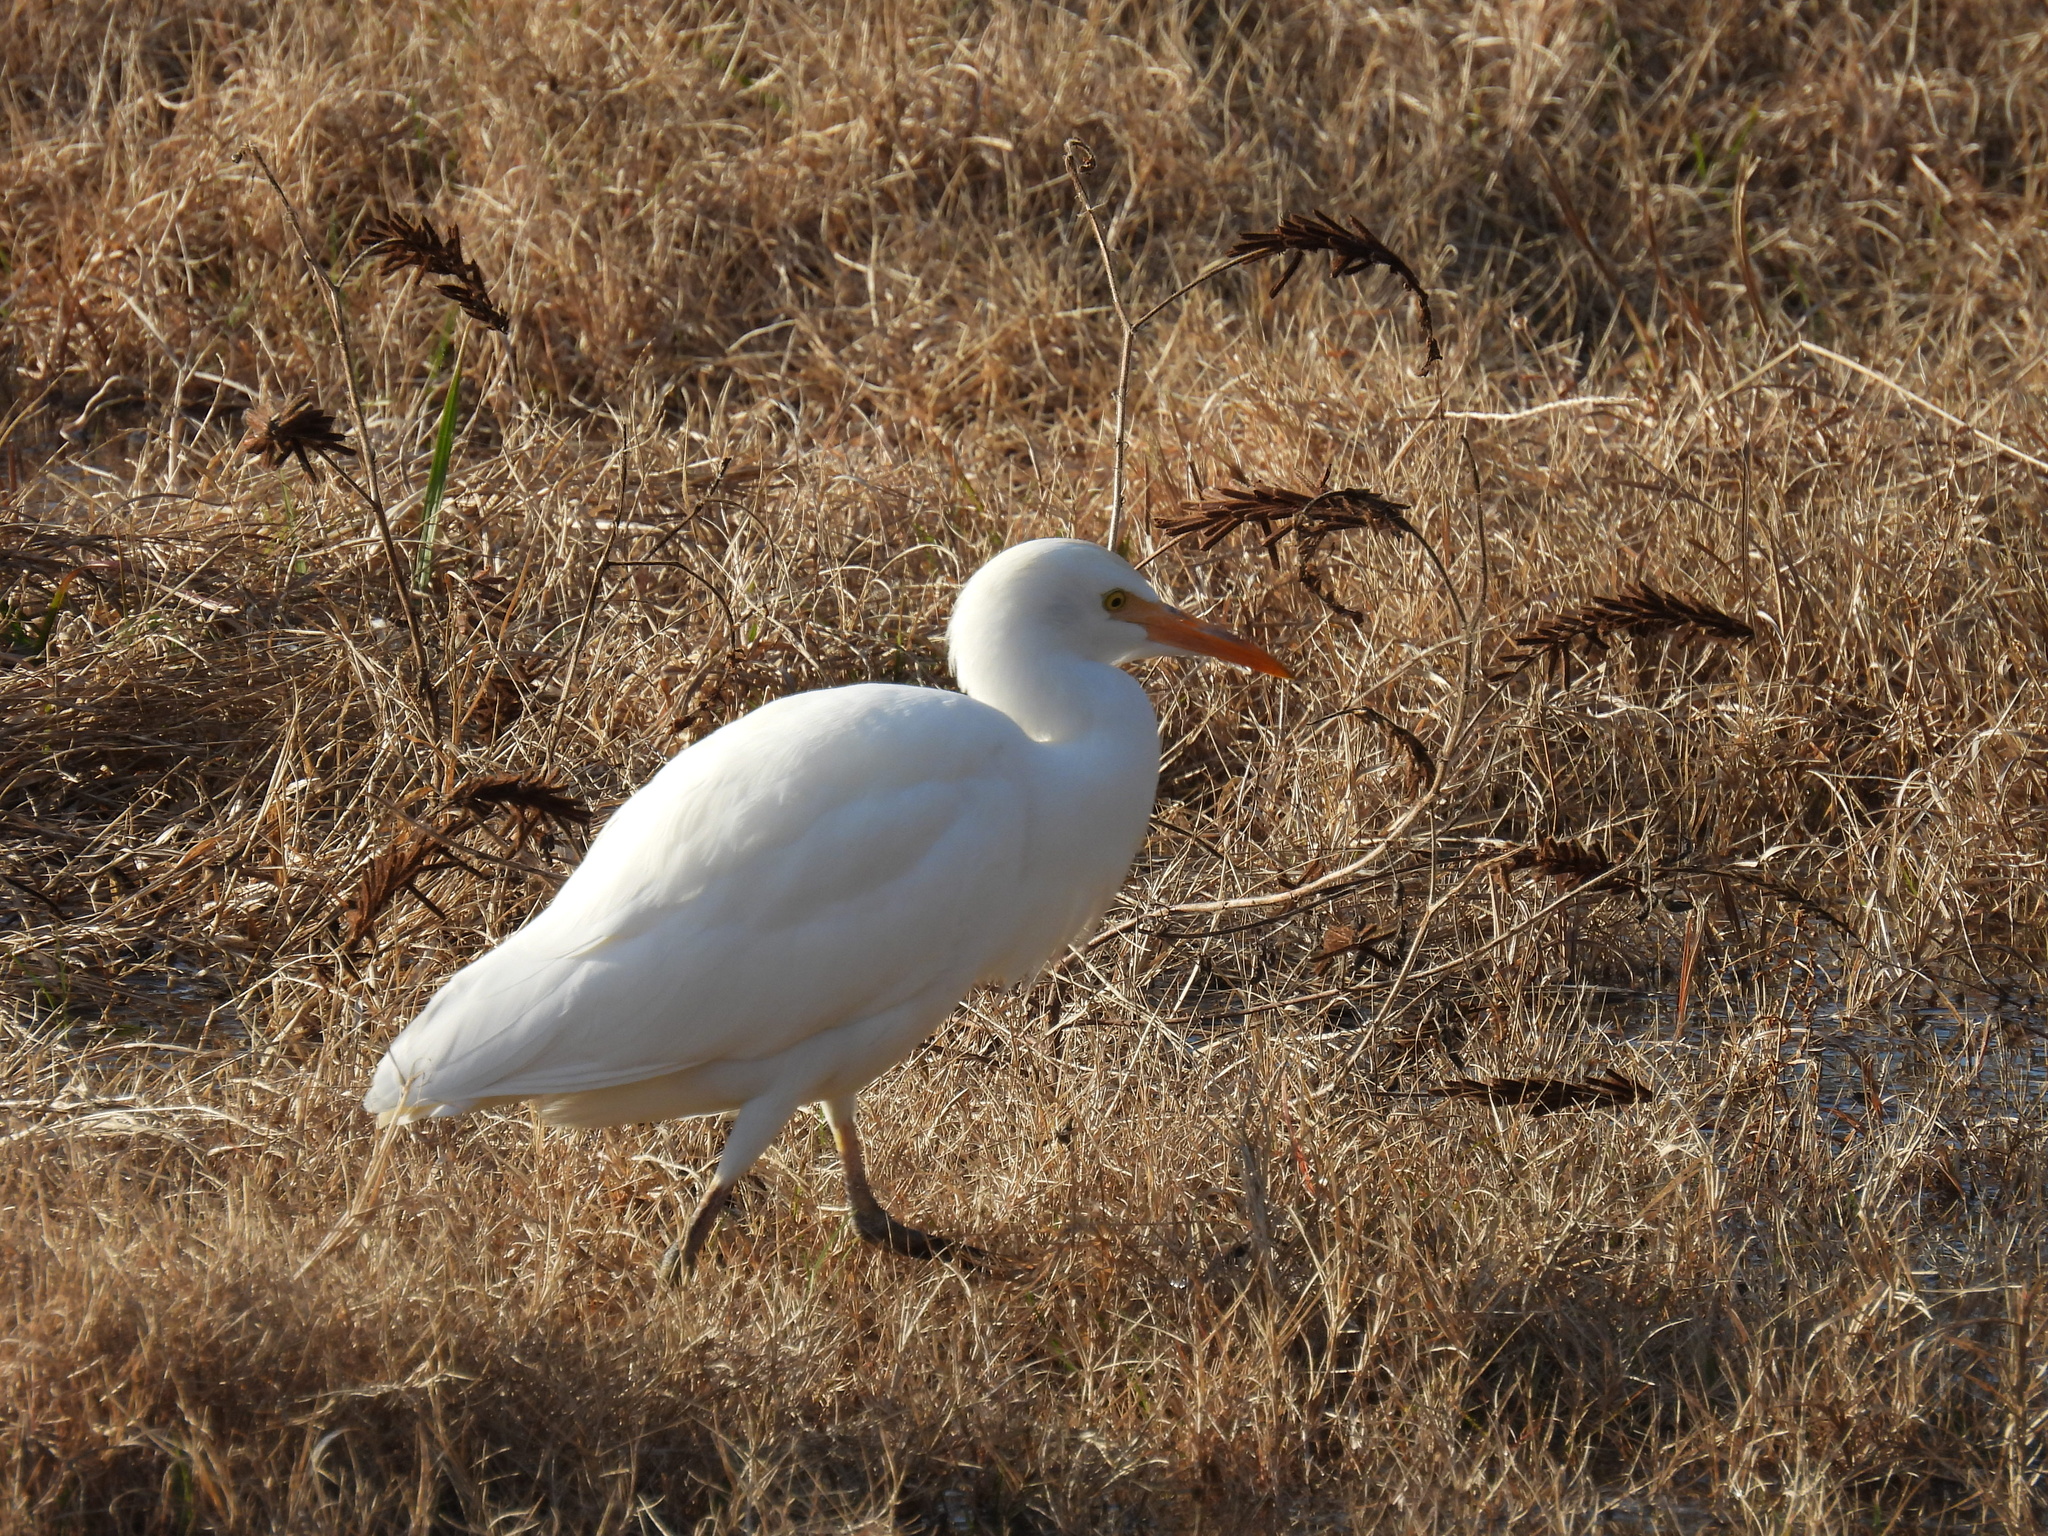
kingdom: Animalia
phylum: Chordata
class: Aves
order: Pelecaniformes
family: Ardeidae
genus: Bubulcus
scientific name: Bubulcus ibis
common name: Cattle egret
